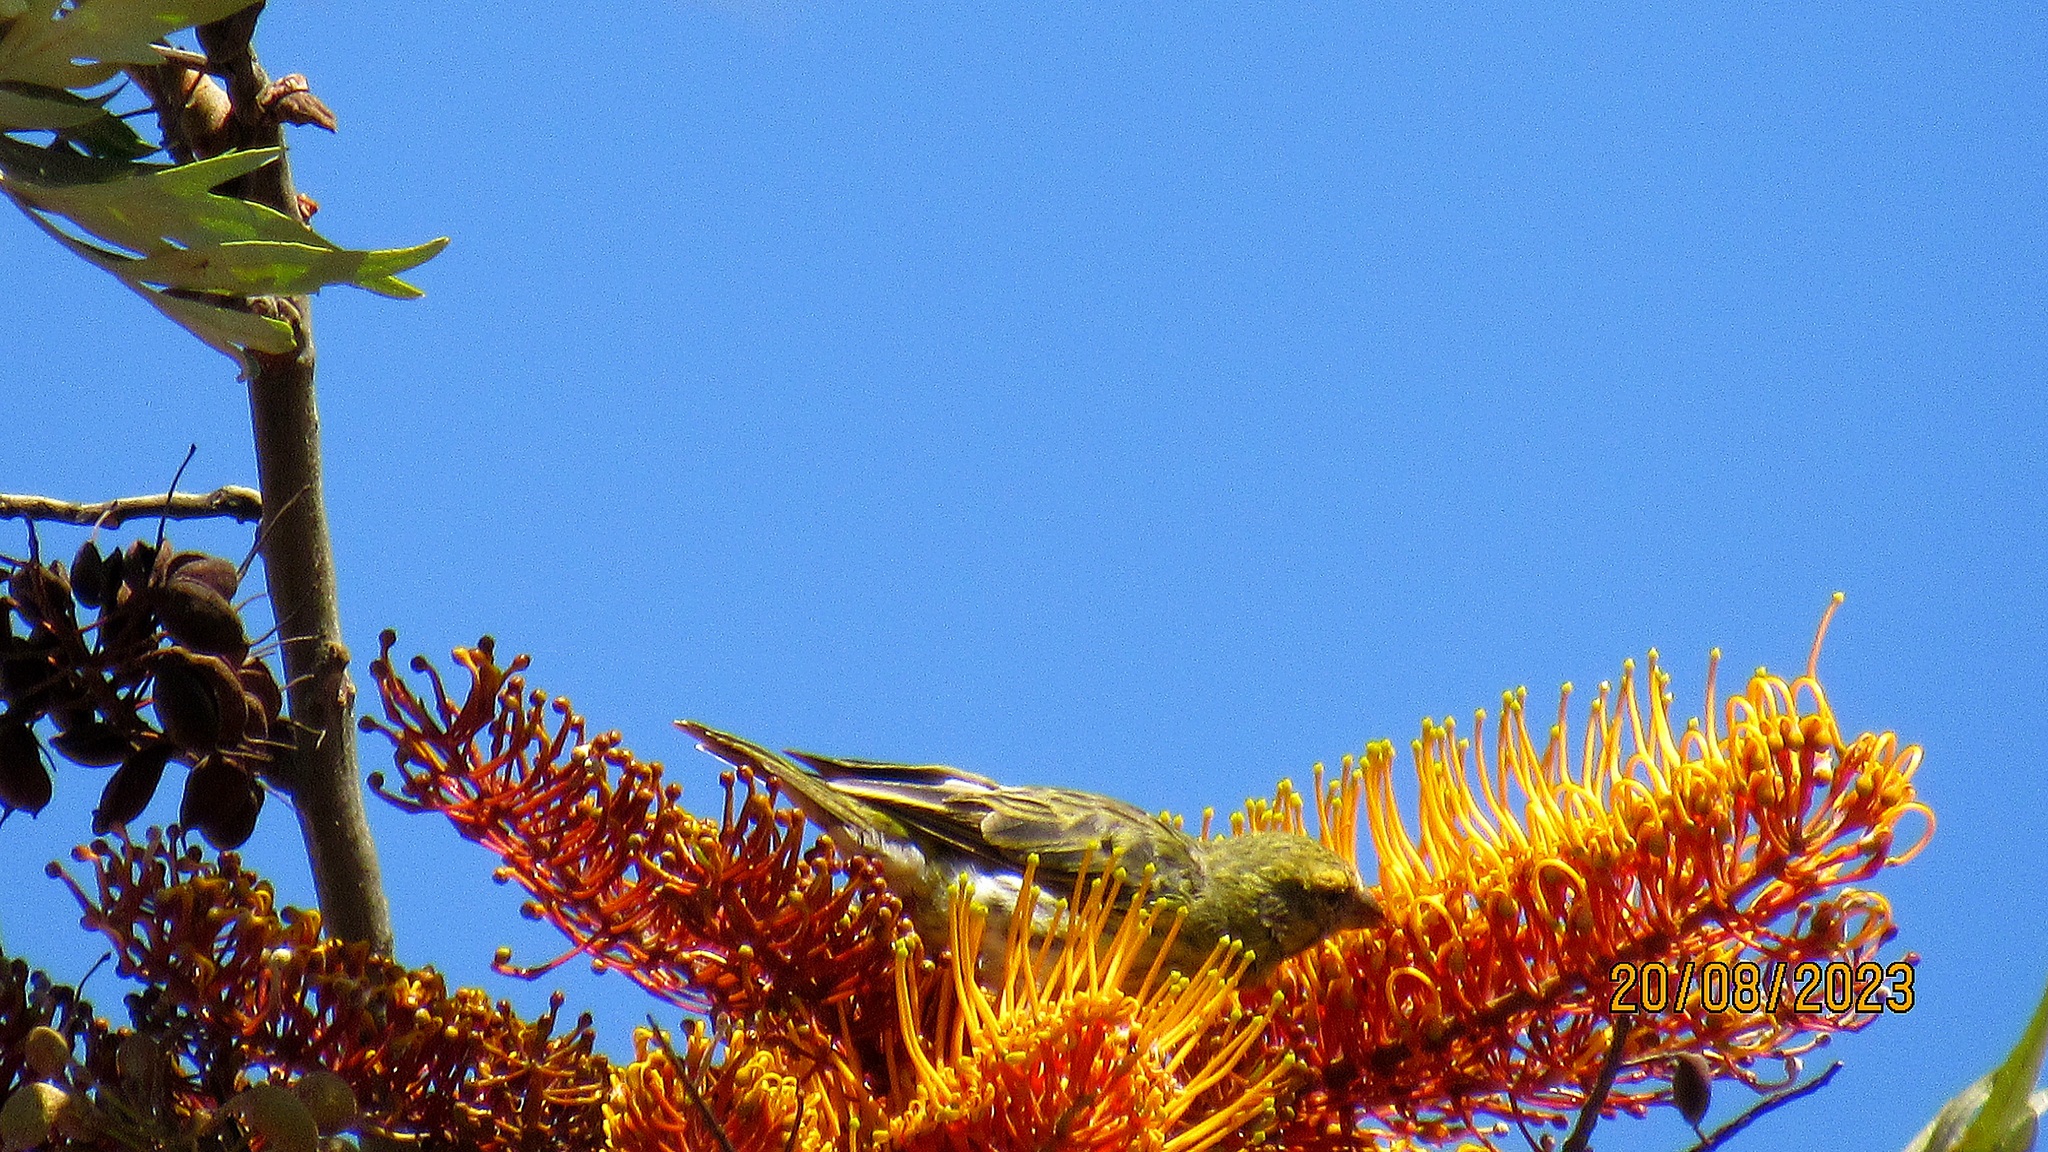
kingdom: Animalia
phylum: Chordata
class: Aves
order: Passeriformes
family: Fringillidae
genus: Crithagra
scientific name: Crithagra dorsostriata
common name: White-bellied canary
